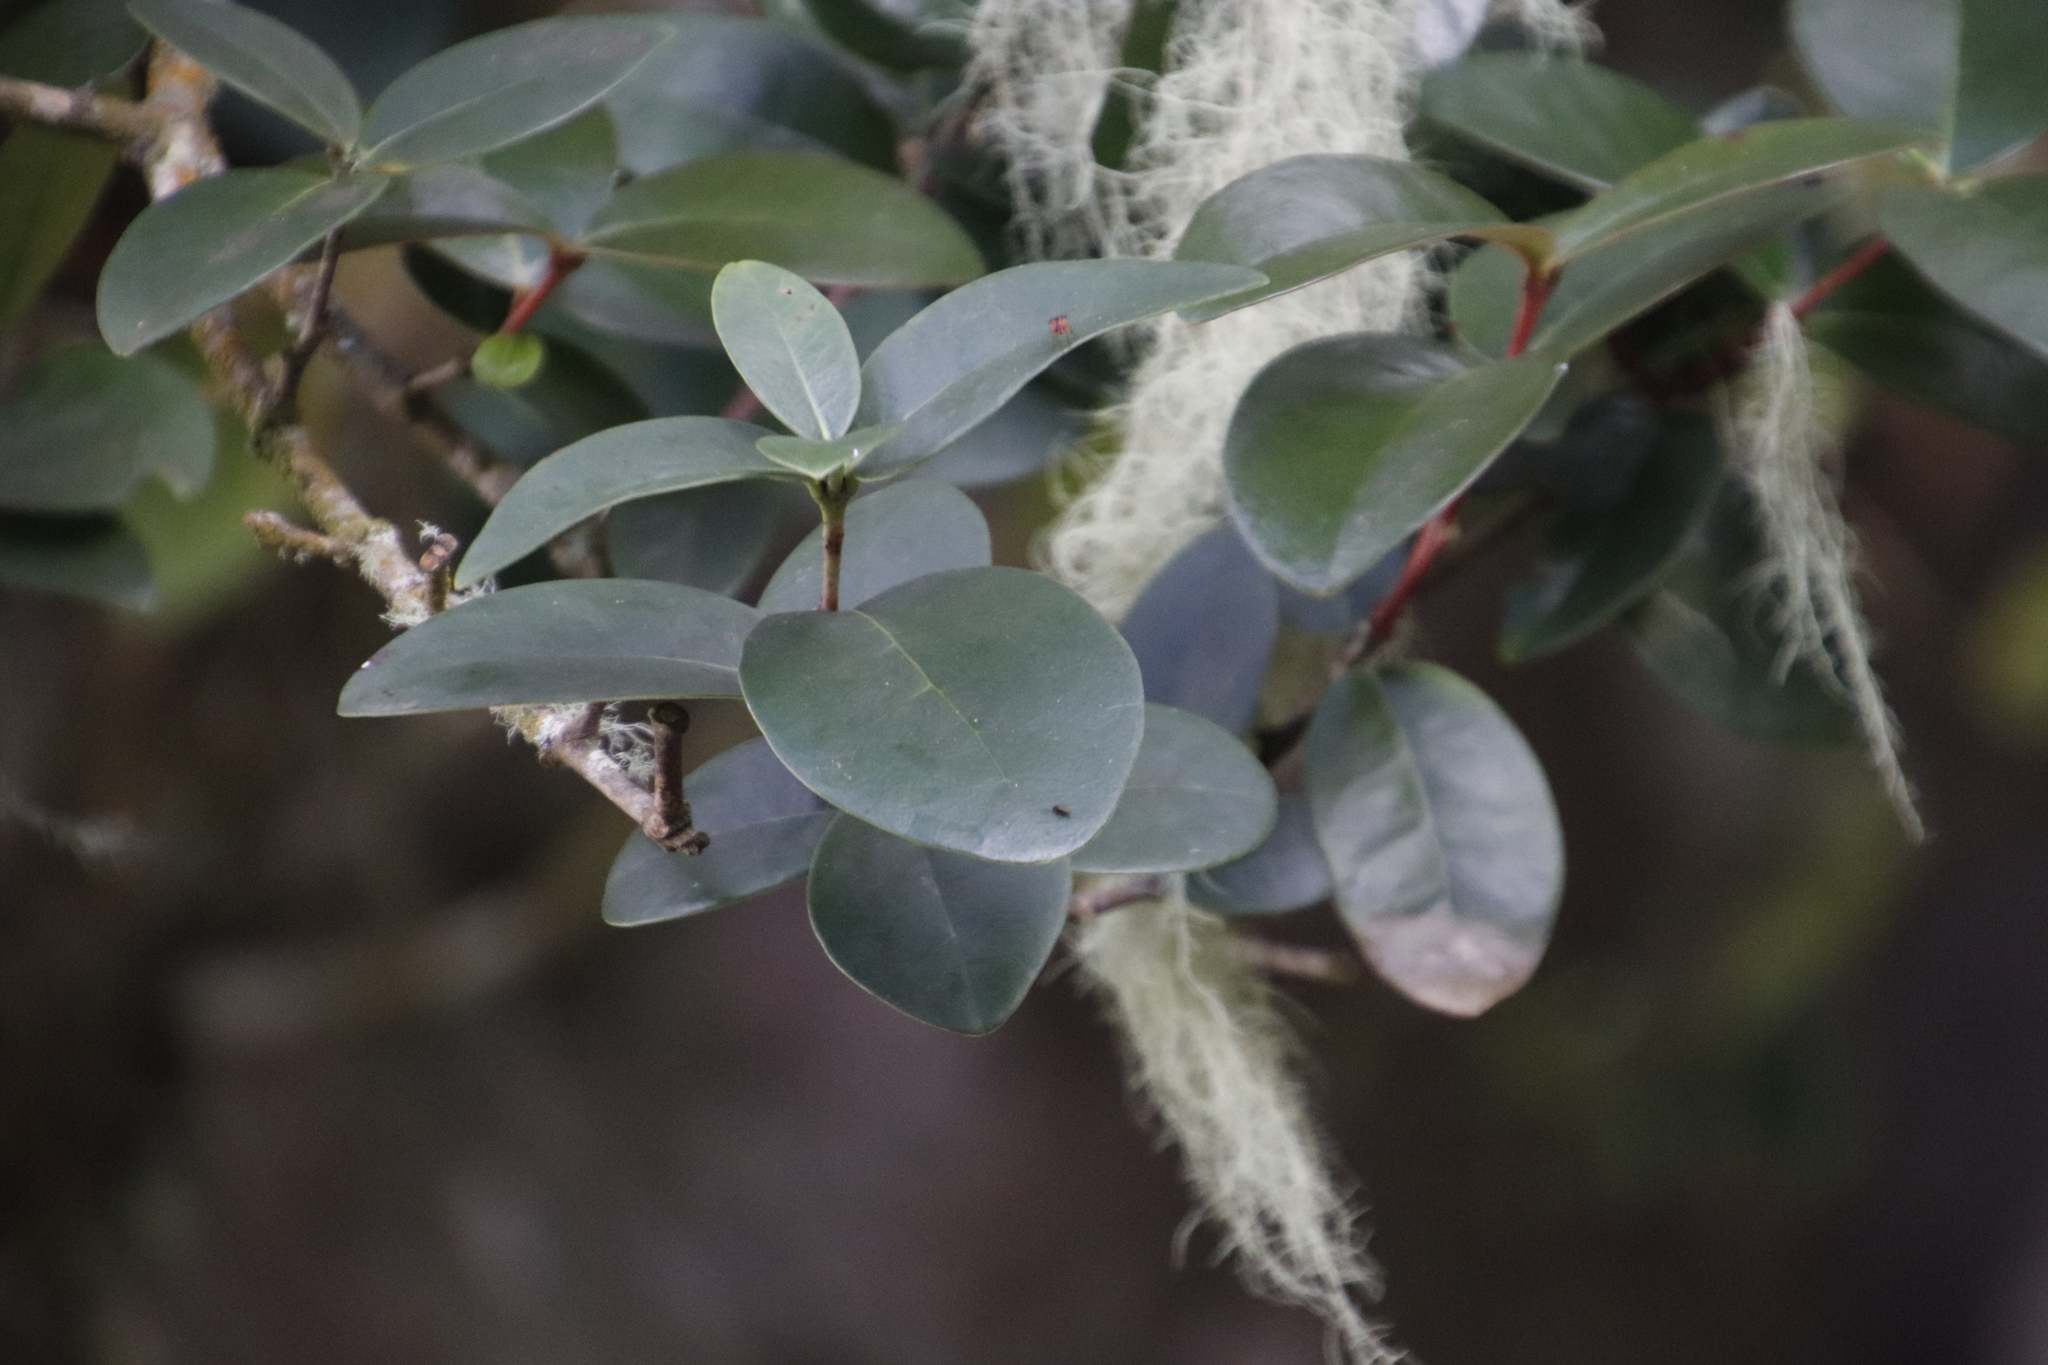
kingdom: Plantae
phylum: Tracheophyta
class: Magnoliopsida
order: Celastrales
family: Celastraceae
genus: Maurocenia
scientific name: Maurocenia frangula
